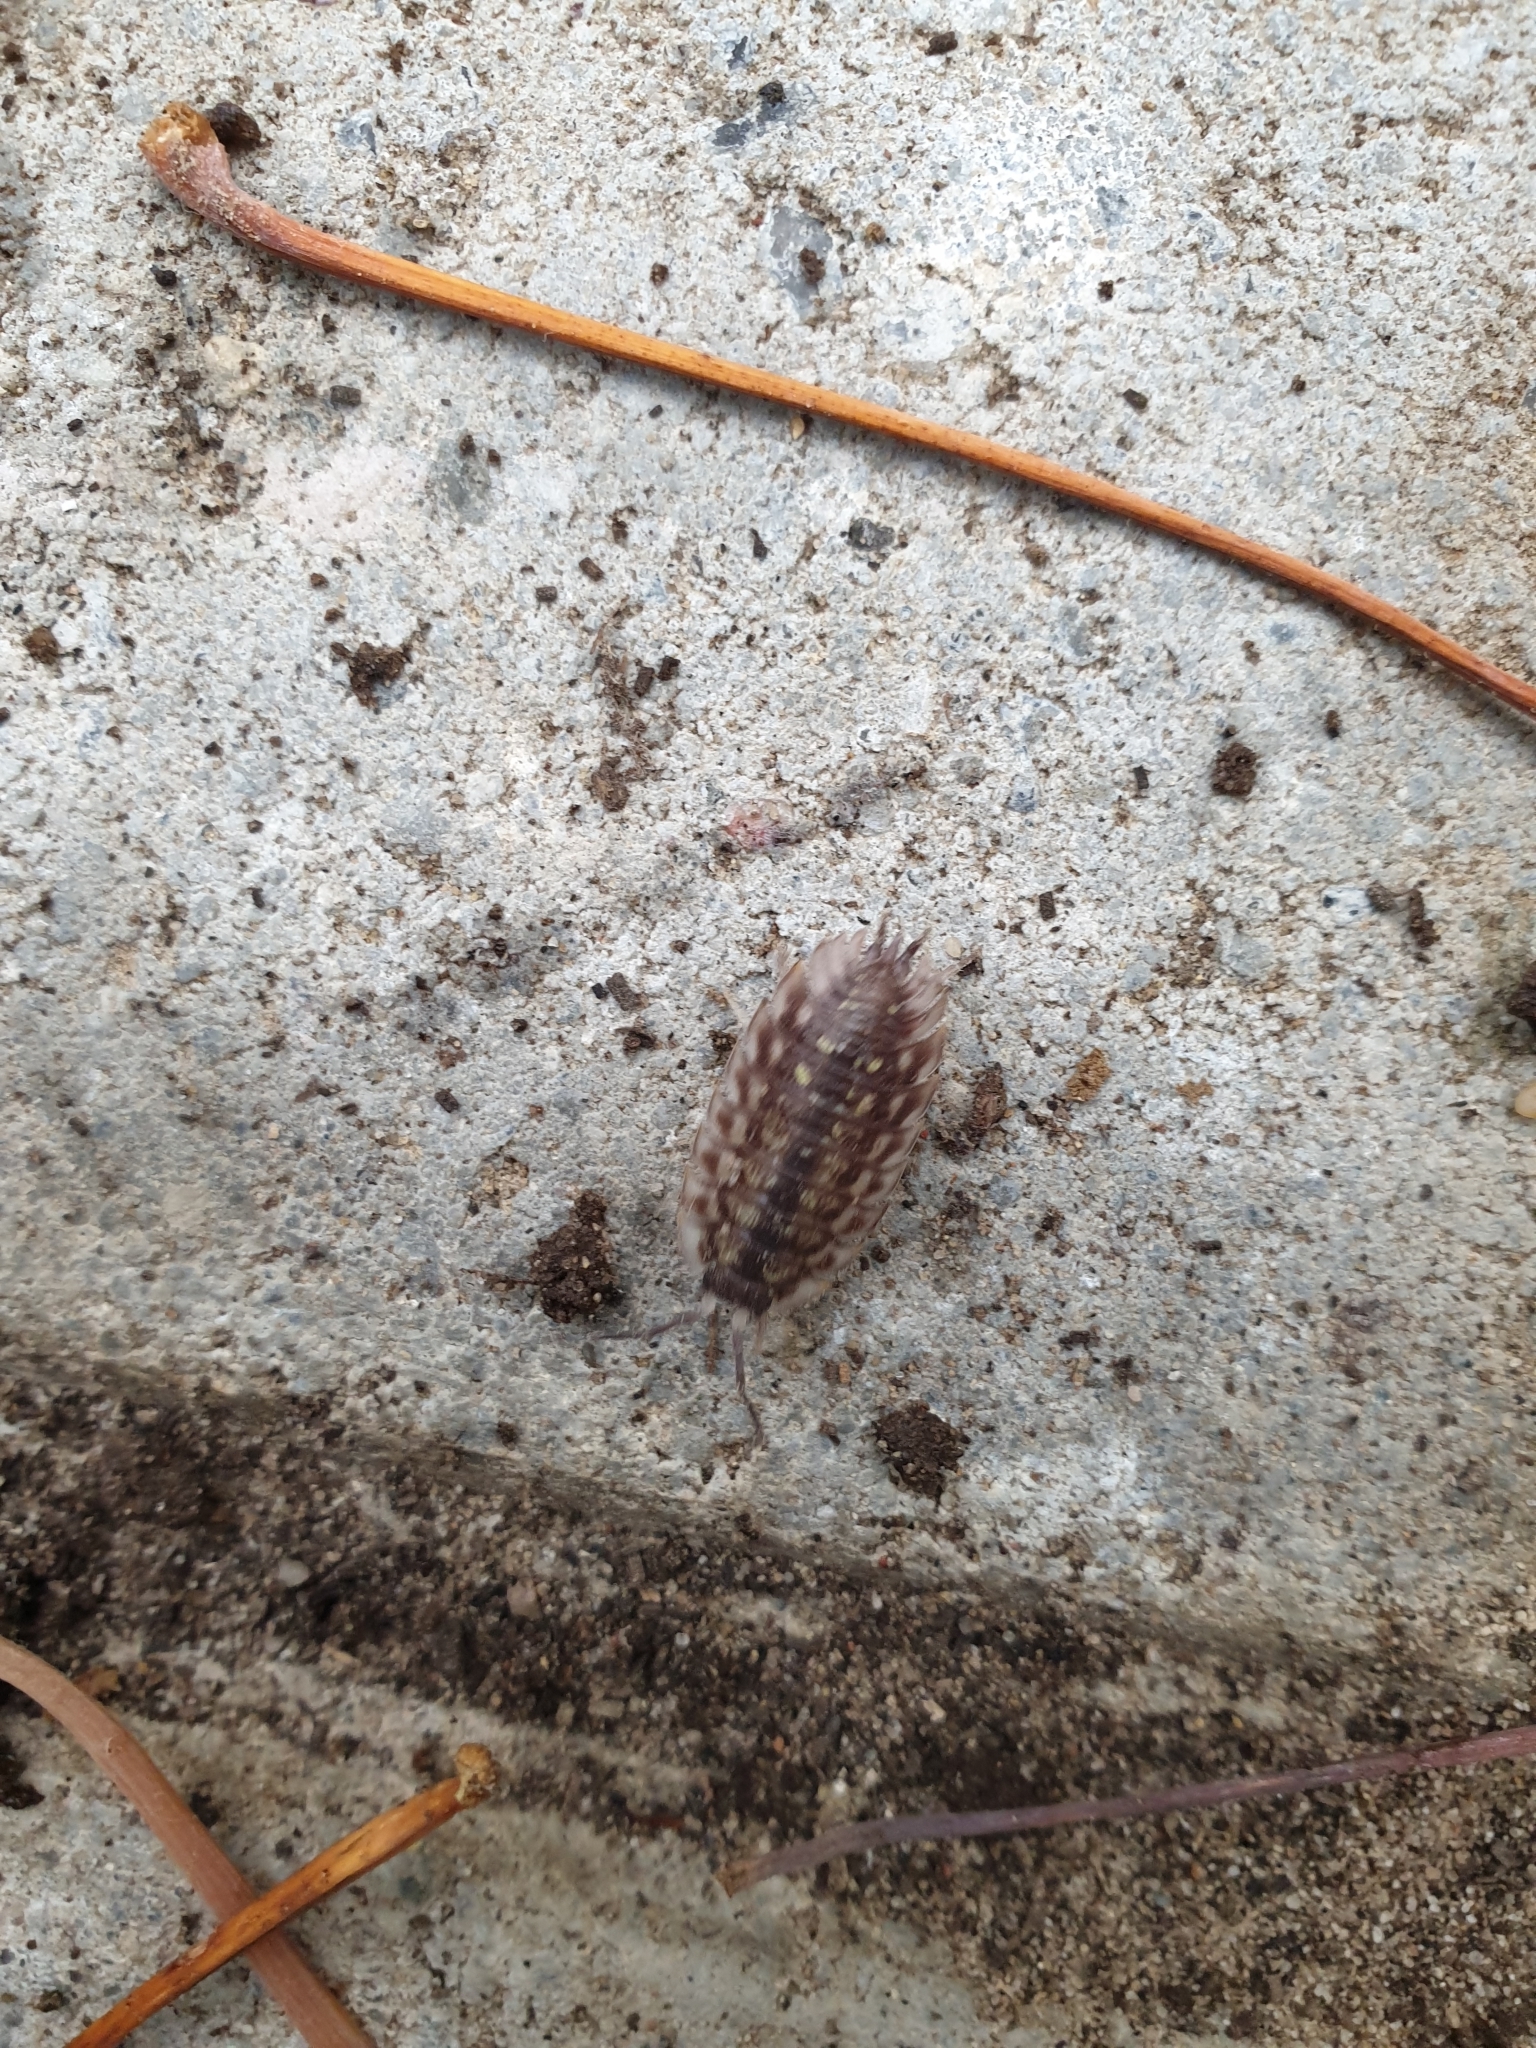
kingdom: Animalia
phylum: Arthropoda
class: Malacostraca
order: Isopoda
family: Oniscidae
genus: Oniscus
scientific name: Oniscus asellus
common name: Common shiny woodlouse
